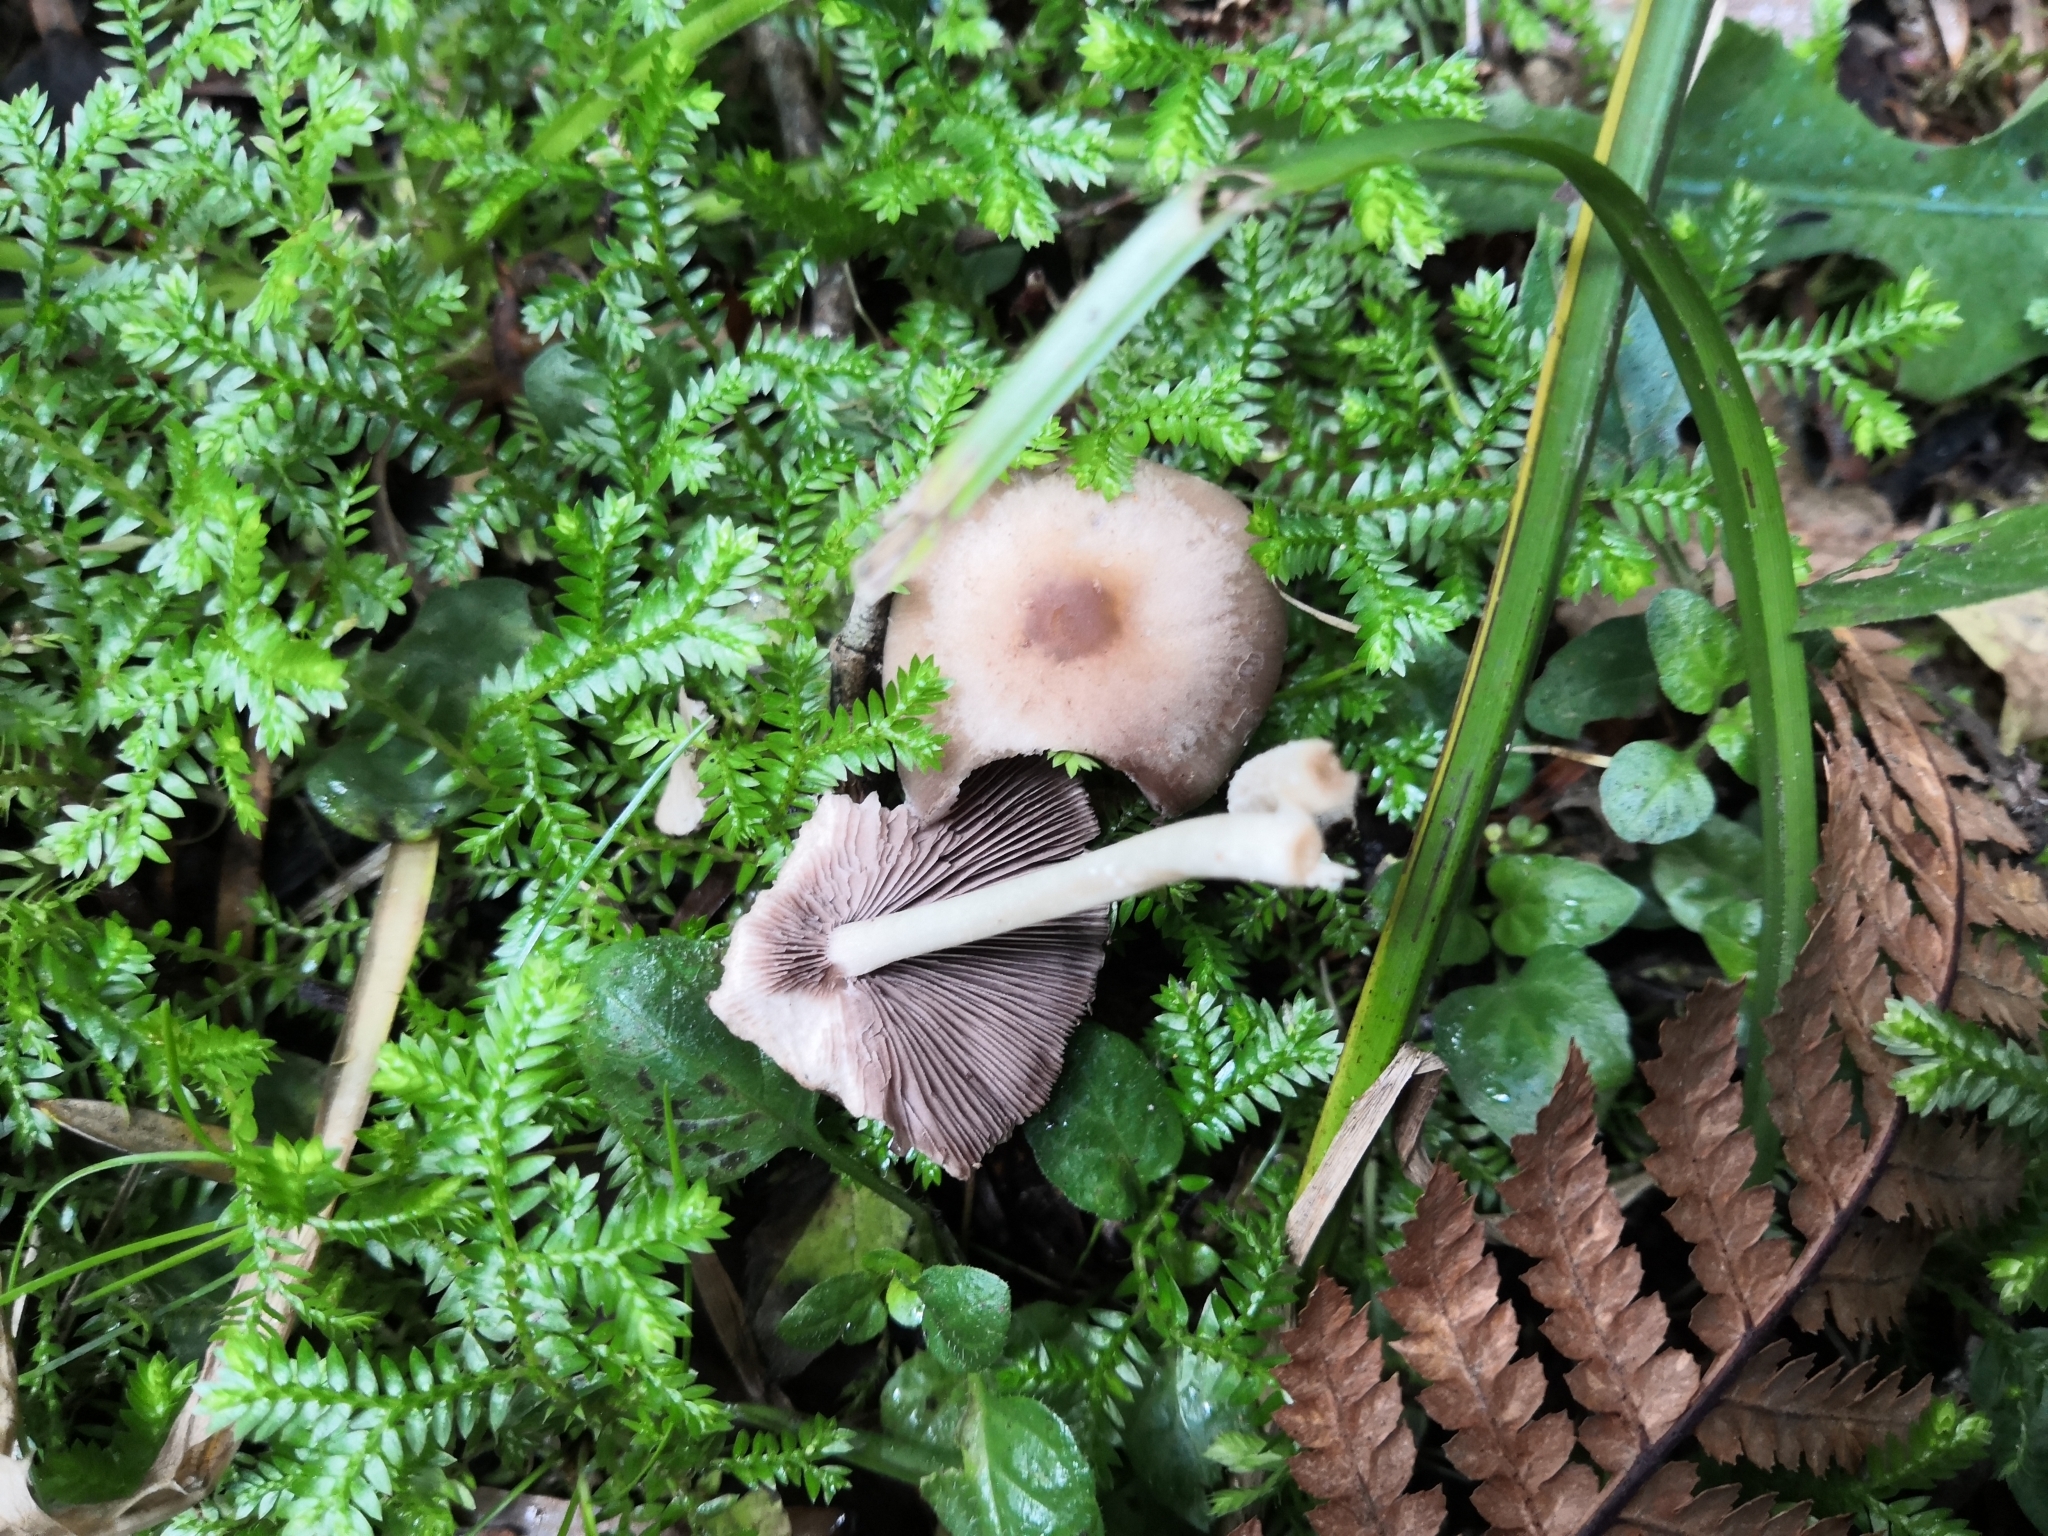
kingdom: Fungi
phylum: Basidiomycota
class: Agaricomycetes
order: Agaricales
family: Psathyrellaceae
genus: Candolleomyces
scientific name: Candolleomyces candolleanus
